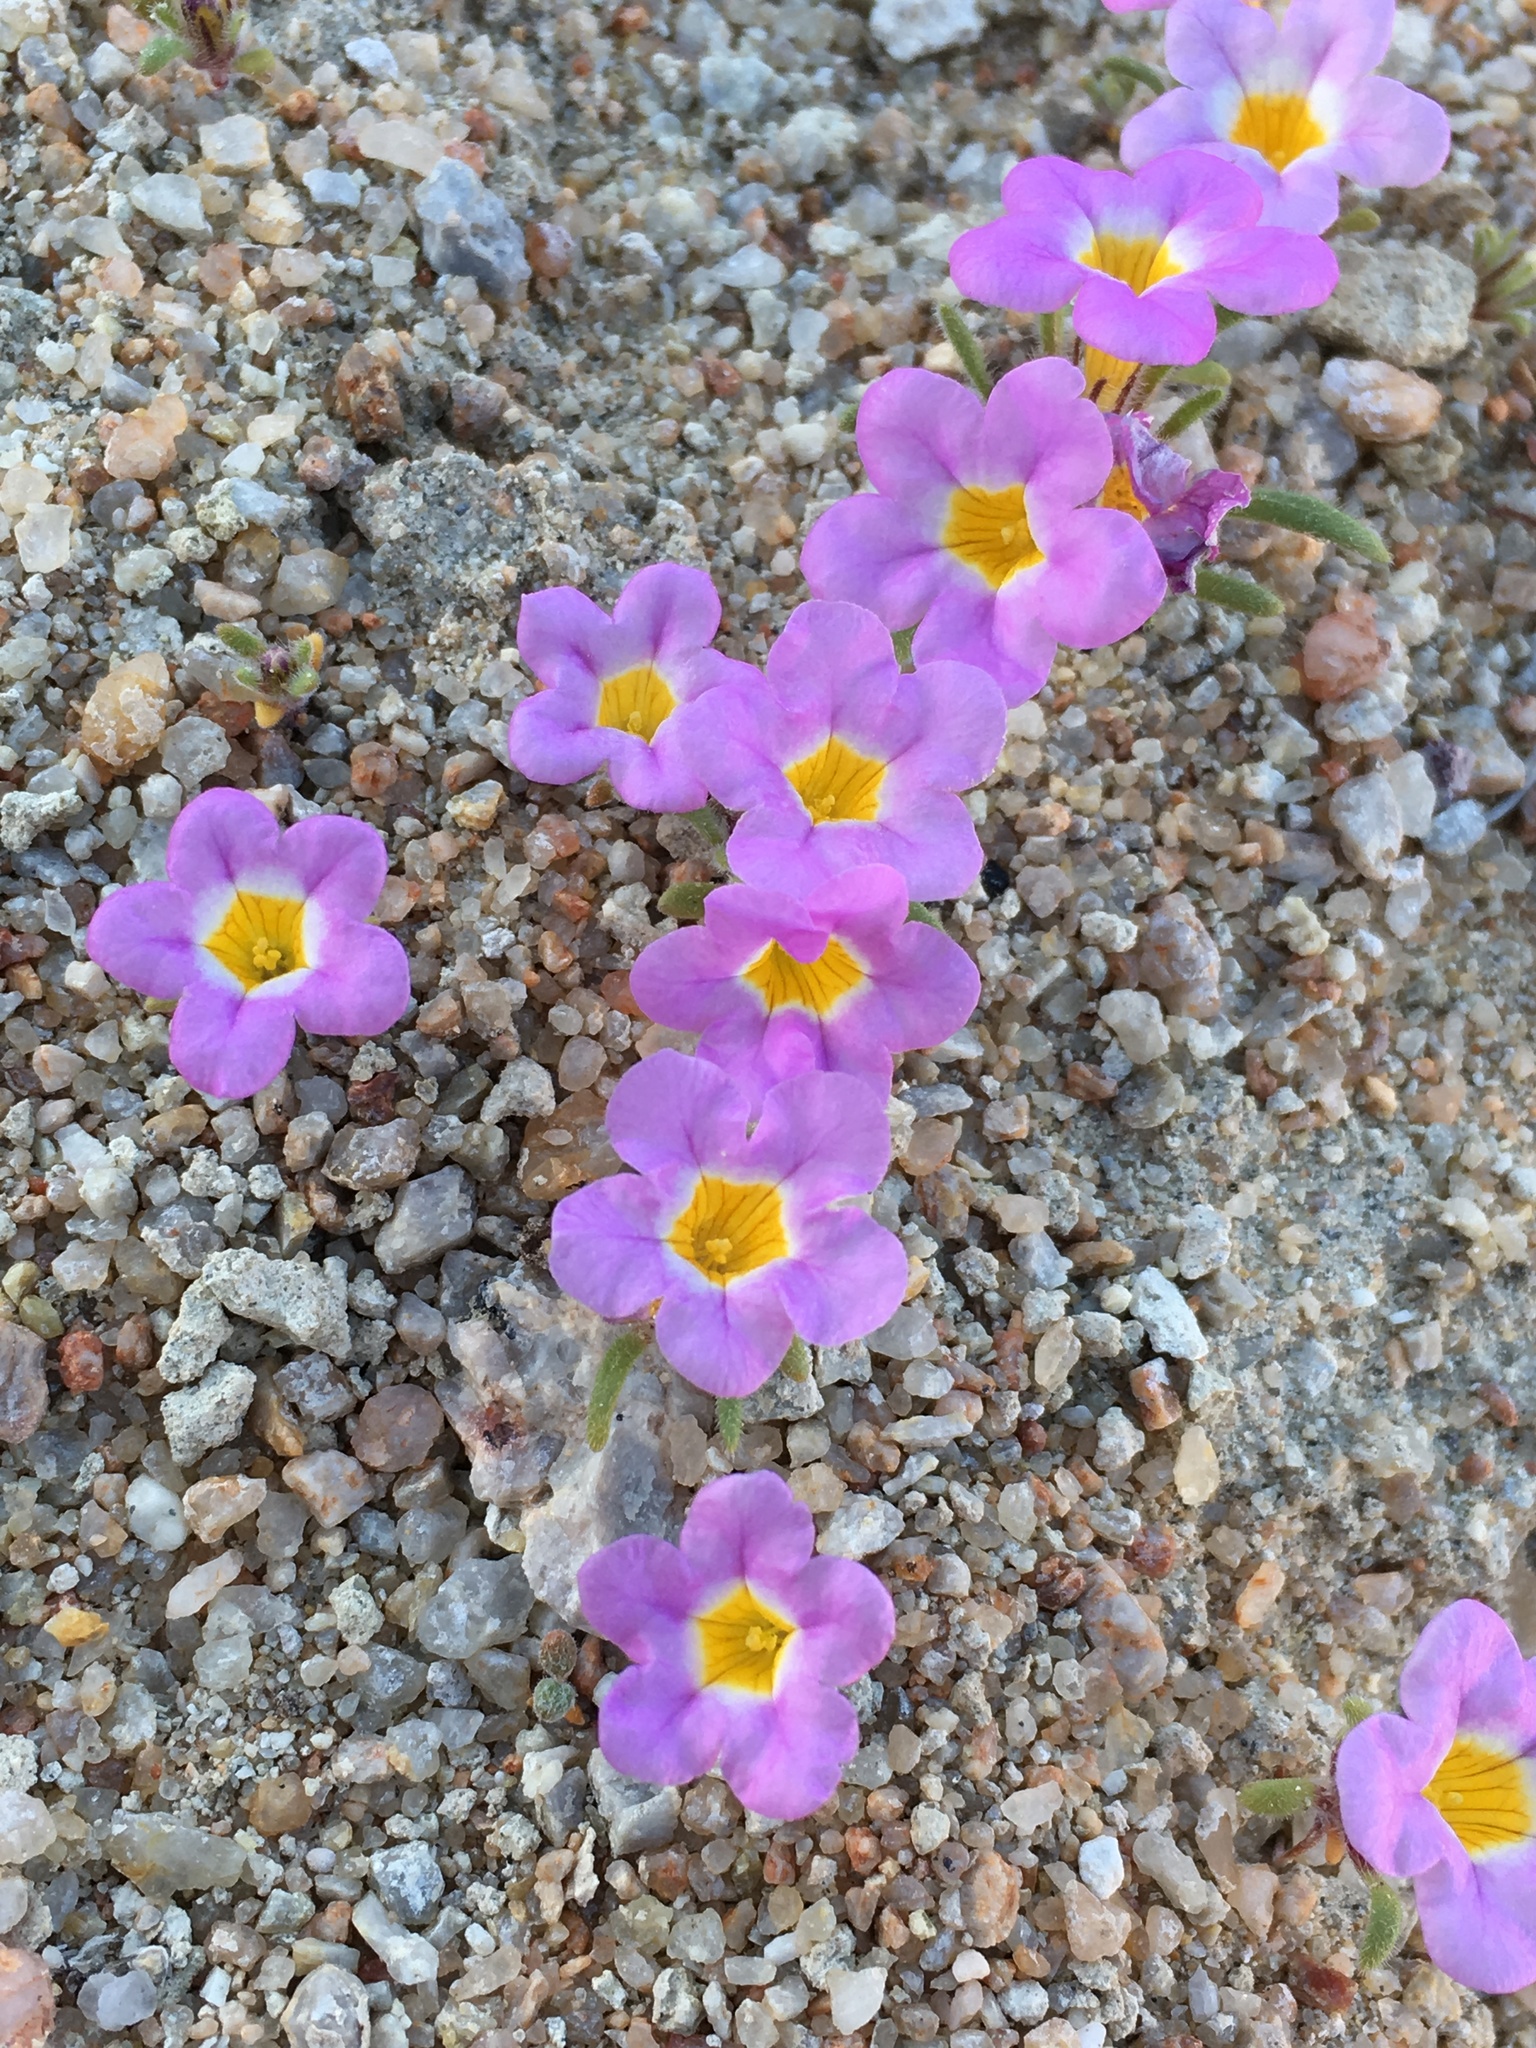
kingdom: Plantae
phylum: Tracheophyta
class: Magnoliopsida
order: Boraginales
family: Namaceae
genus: Nama
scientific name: Nama aretioides
